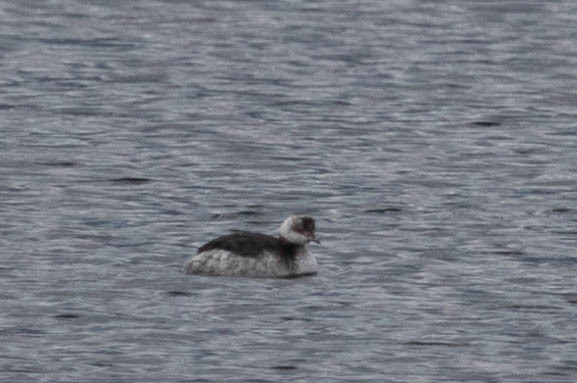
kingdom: Animalia
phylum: Chordata
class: Aves
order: Podicipediformes
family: Podicipedidae
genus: Podiceps
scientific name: Podiceps nigricollis
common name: Black-necked grebe
